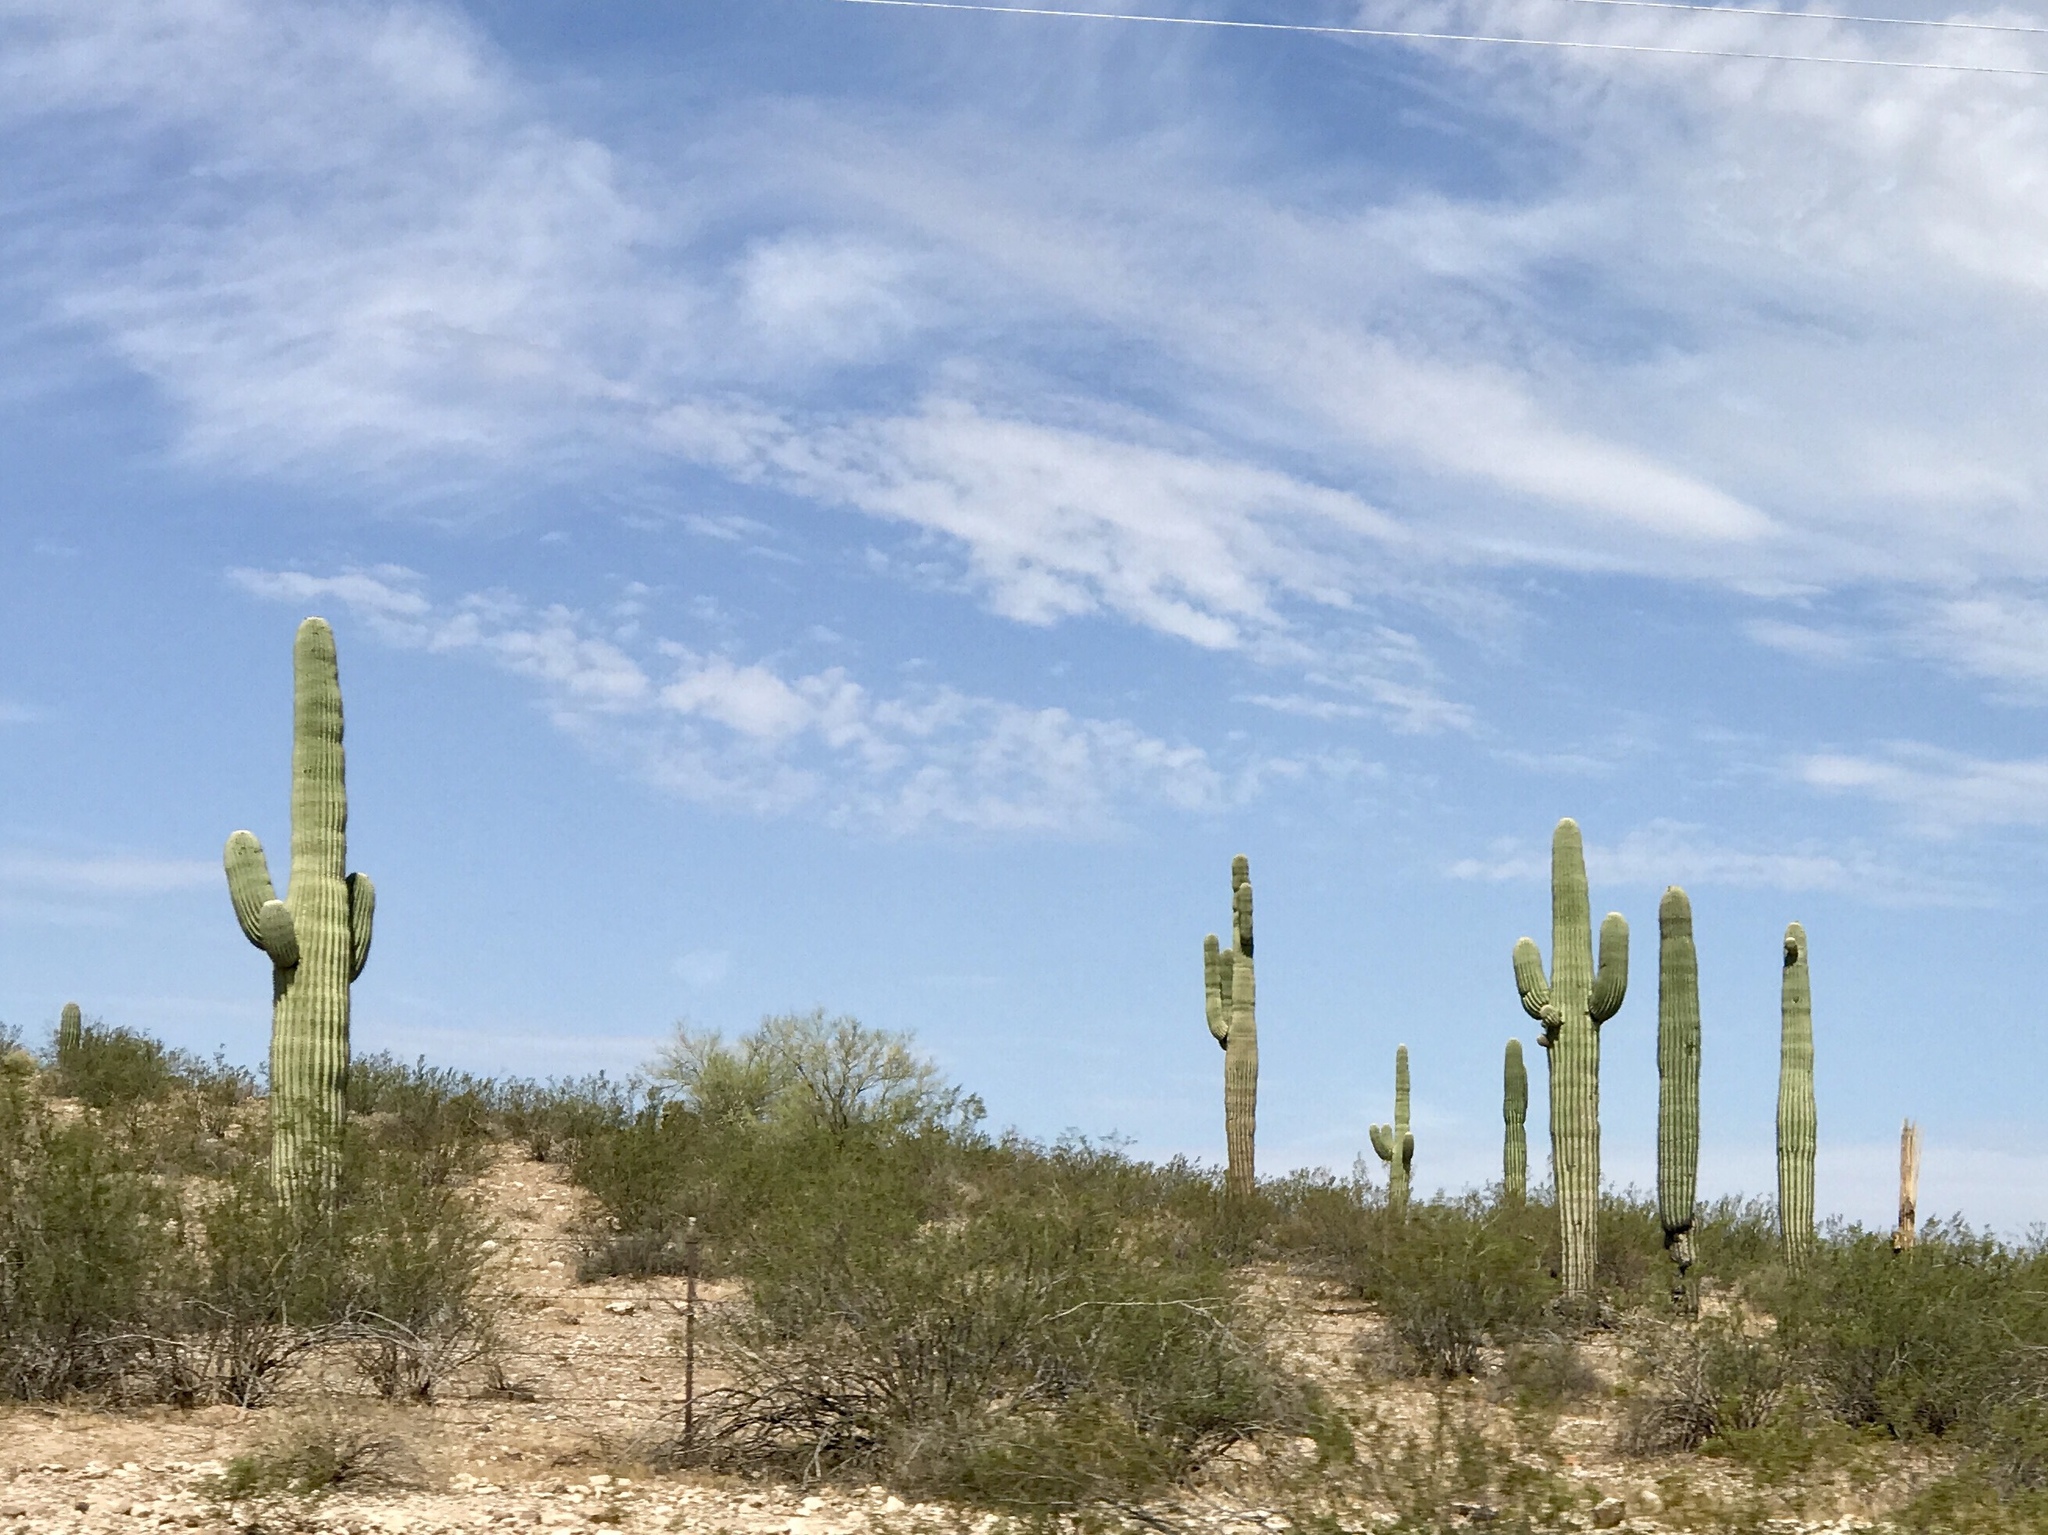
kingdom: Plantae
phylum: Tracheophyta
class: Magnoliopsida
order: Caryophyllales
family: Cactaceae
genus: Carnegiea
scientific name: Carnegiea gigantea
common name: Saguaro
